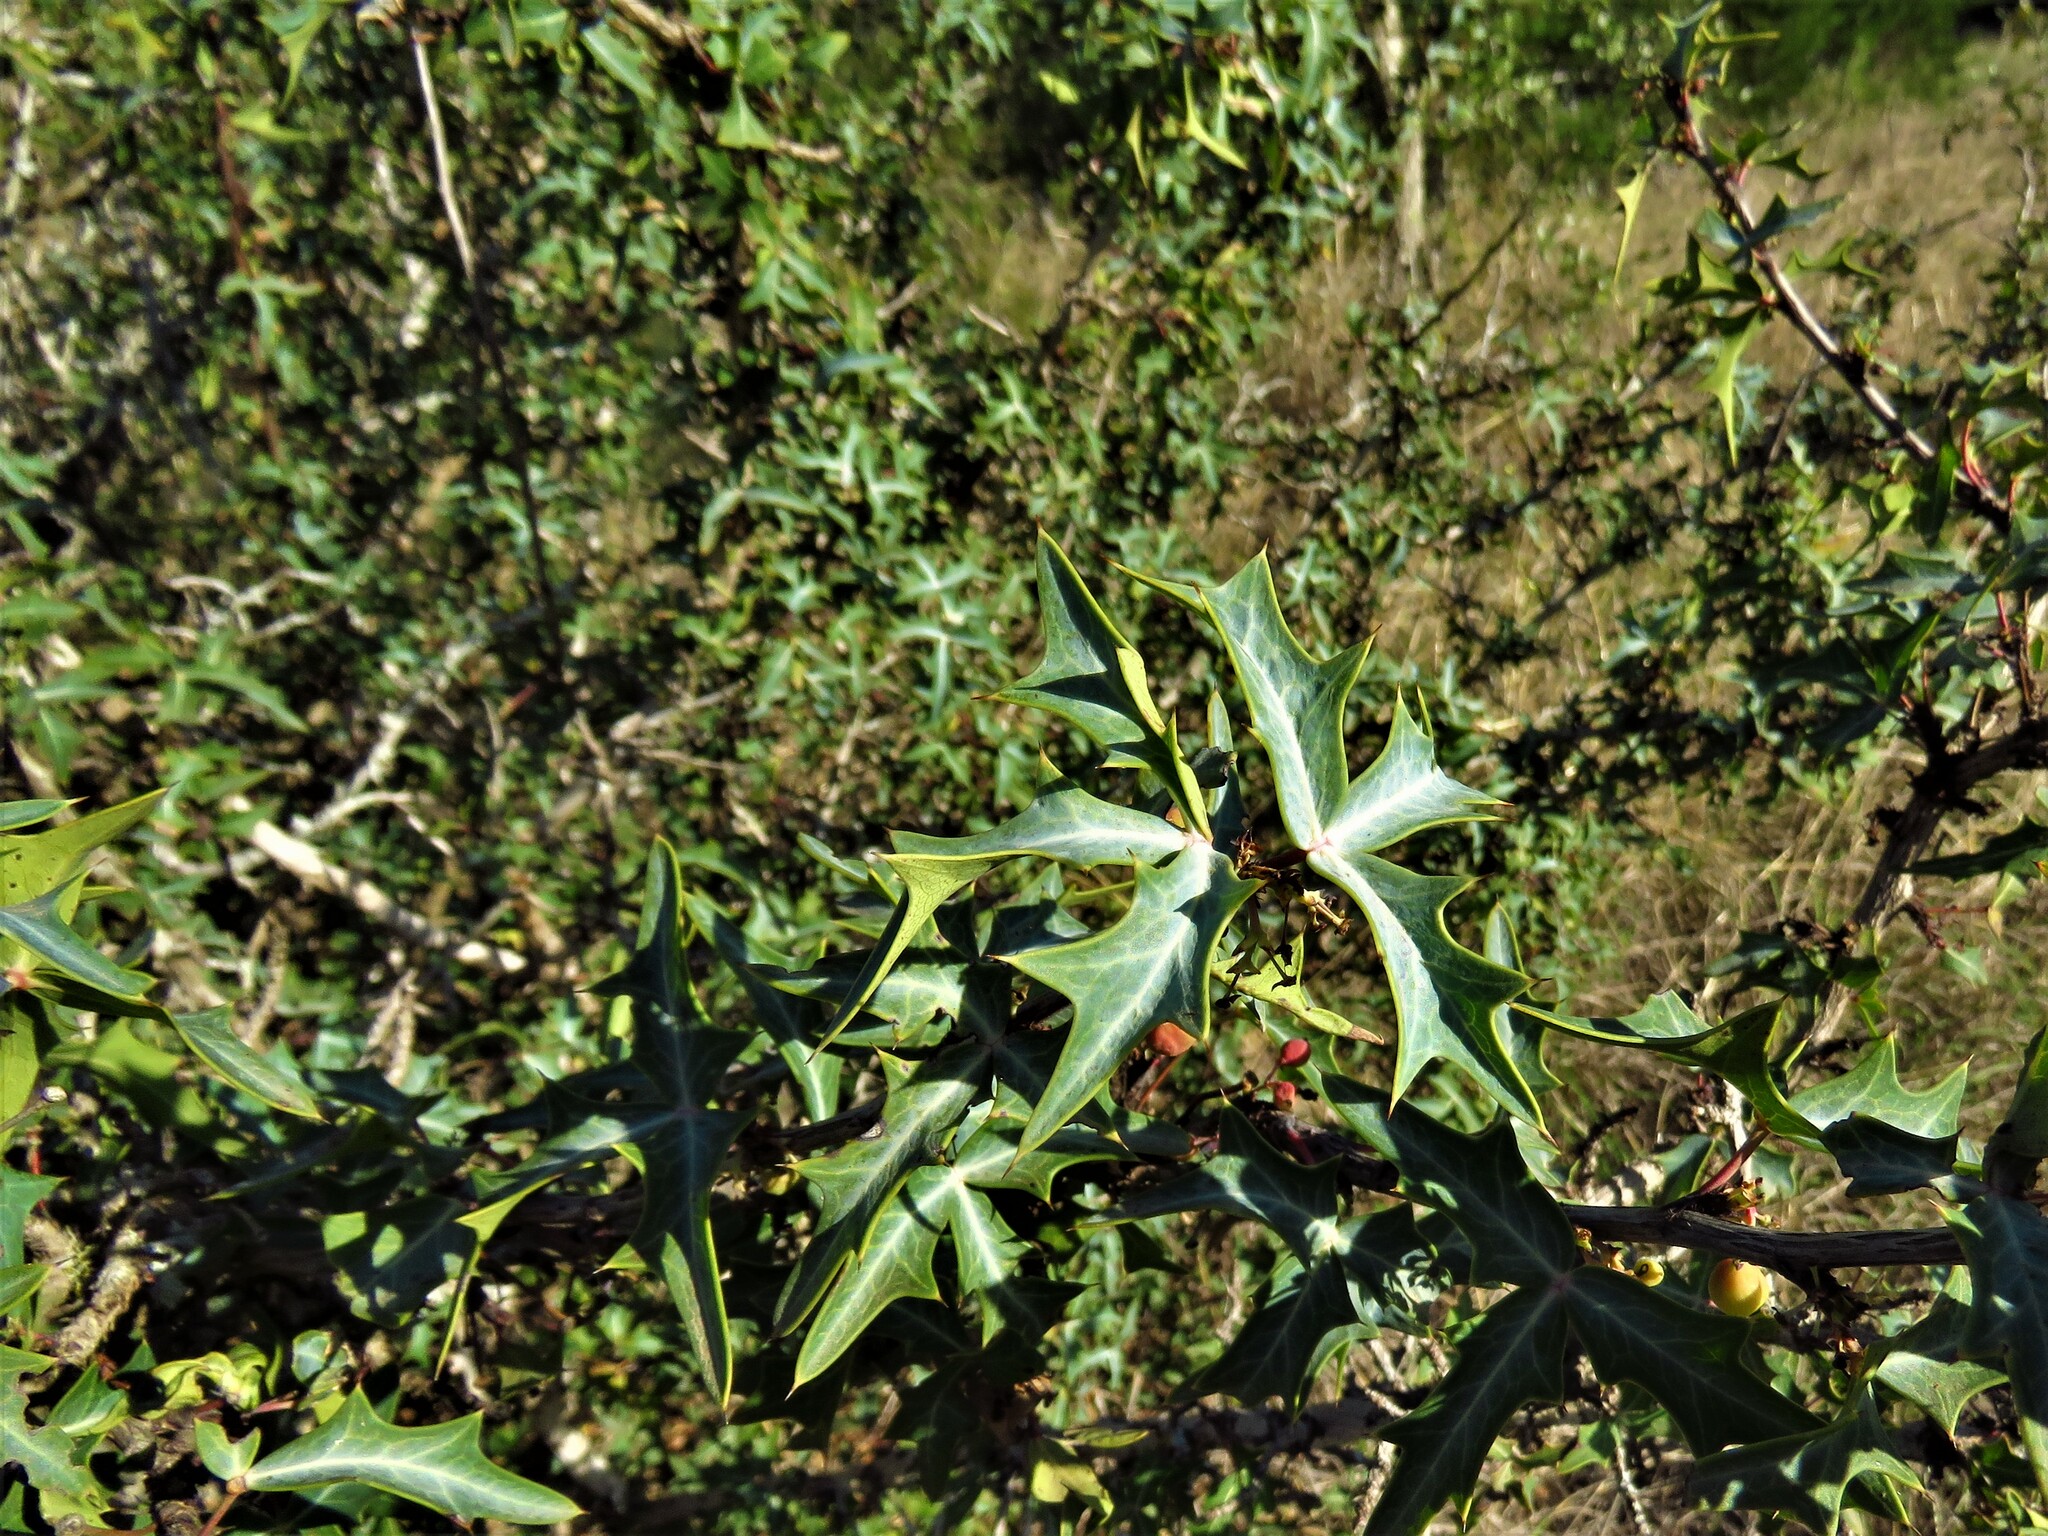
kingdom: Plantae
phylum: Tracheophyta
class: Magnoliopsida
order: Ranunculales
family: Berberidaceae
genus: Alloberberis
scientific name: Alloberberis trifoliolata
